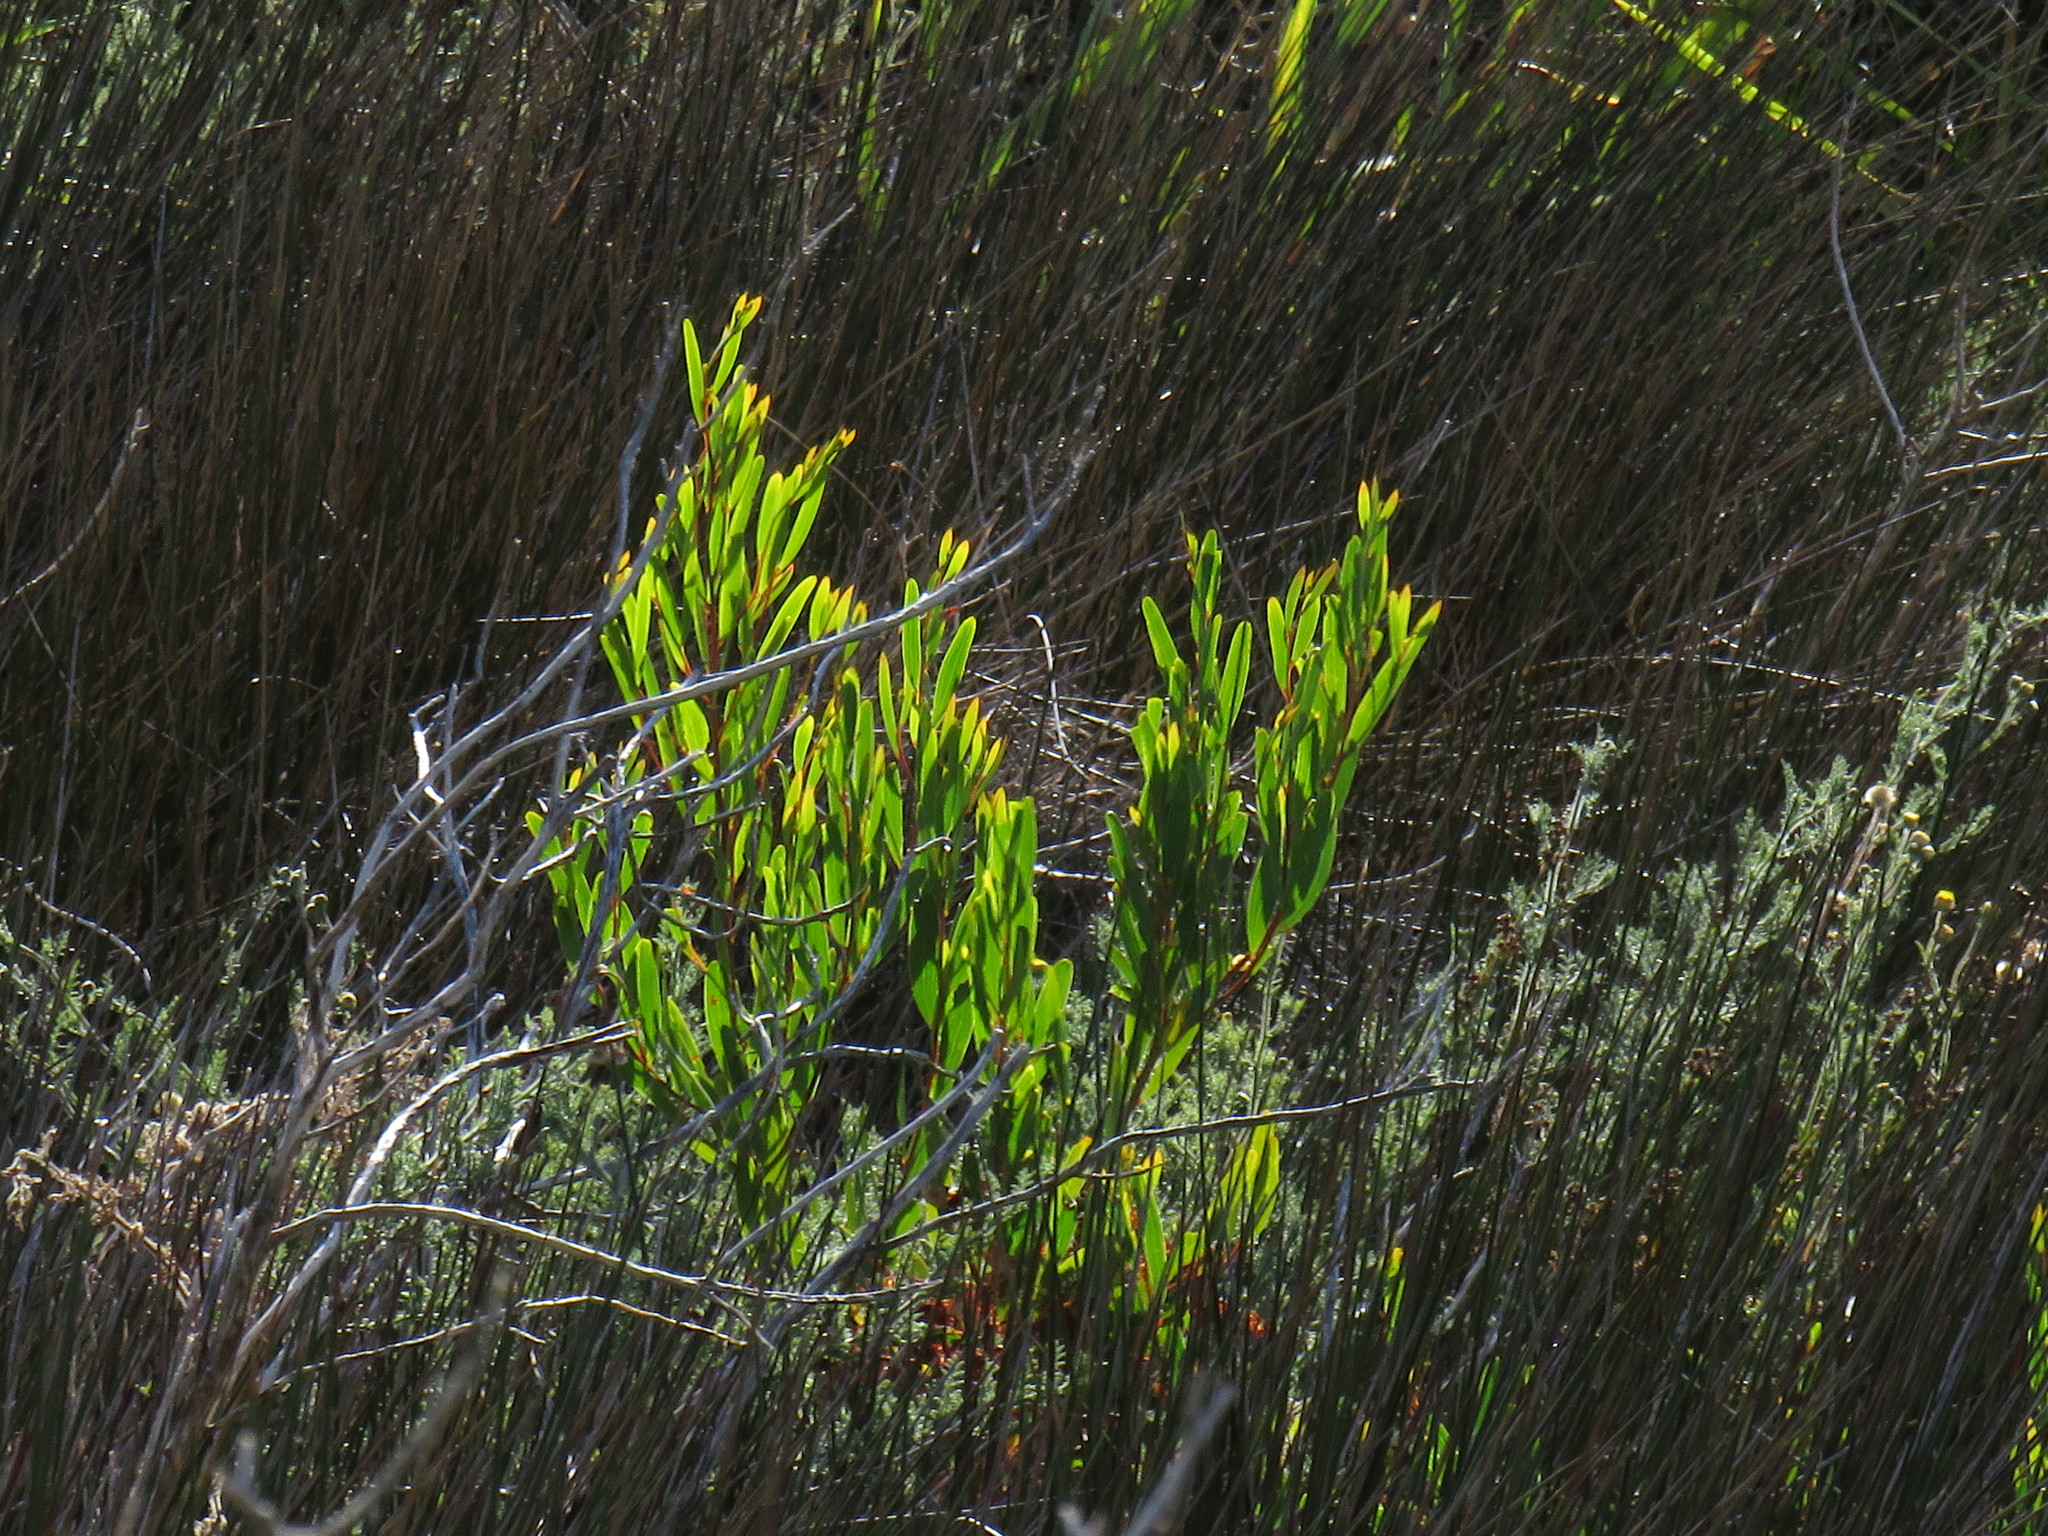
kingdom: Plantae
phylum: Tracheophyta
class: Magnoliopsida
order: Fabales
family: Fabaceae
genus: Acacia
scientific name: Acacia cyclops
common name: Coastal wattle
